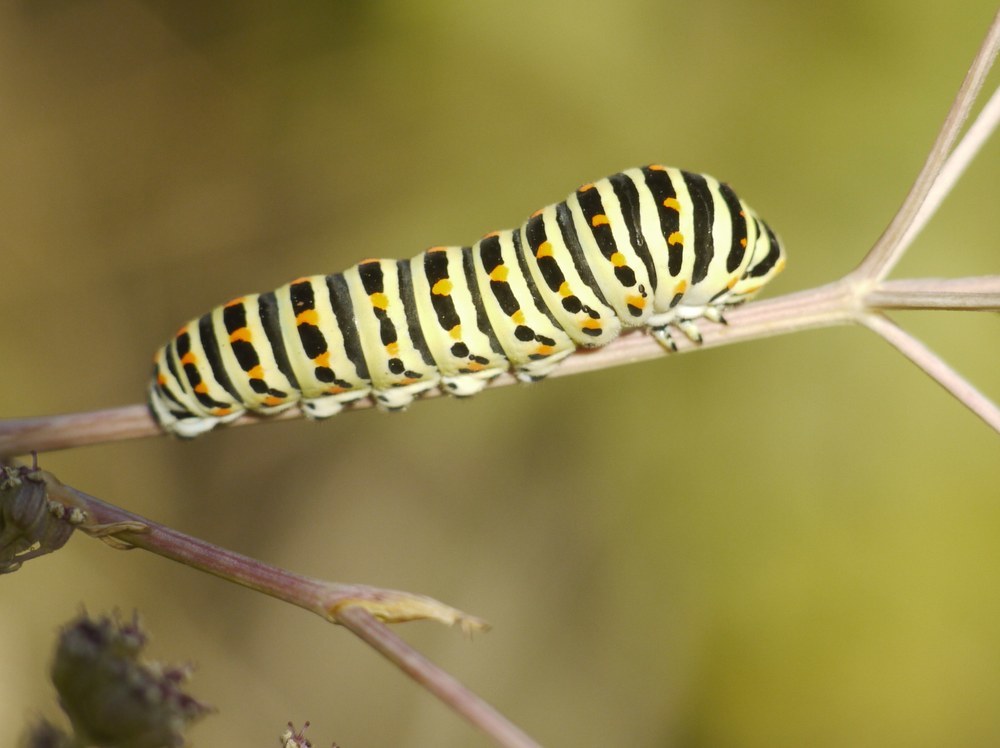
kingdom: Animalia
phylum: Arthropoda
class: Insecta
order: Lepidoptera
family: Papilionidae
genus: Papilio
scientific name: Papilio machaon
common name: Swallowtail
